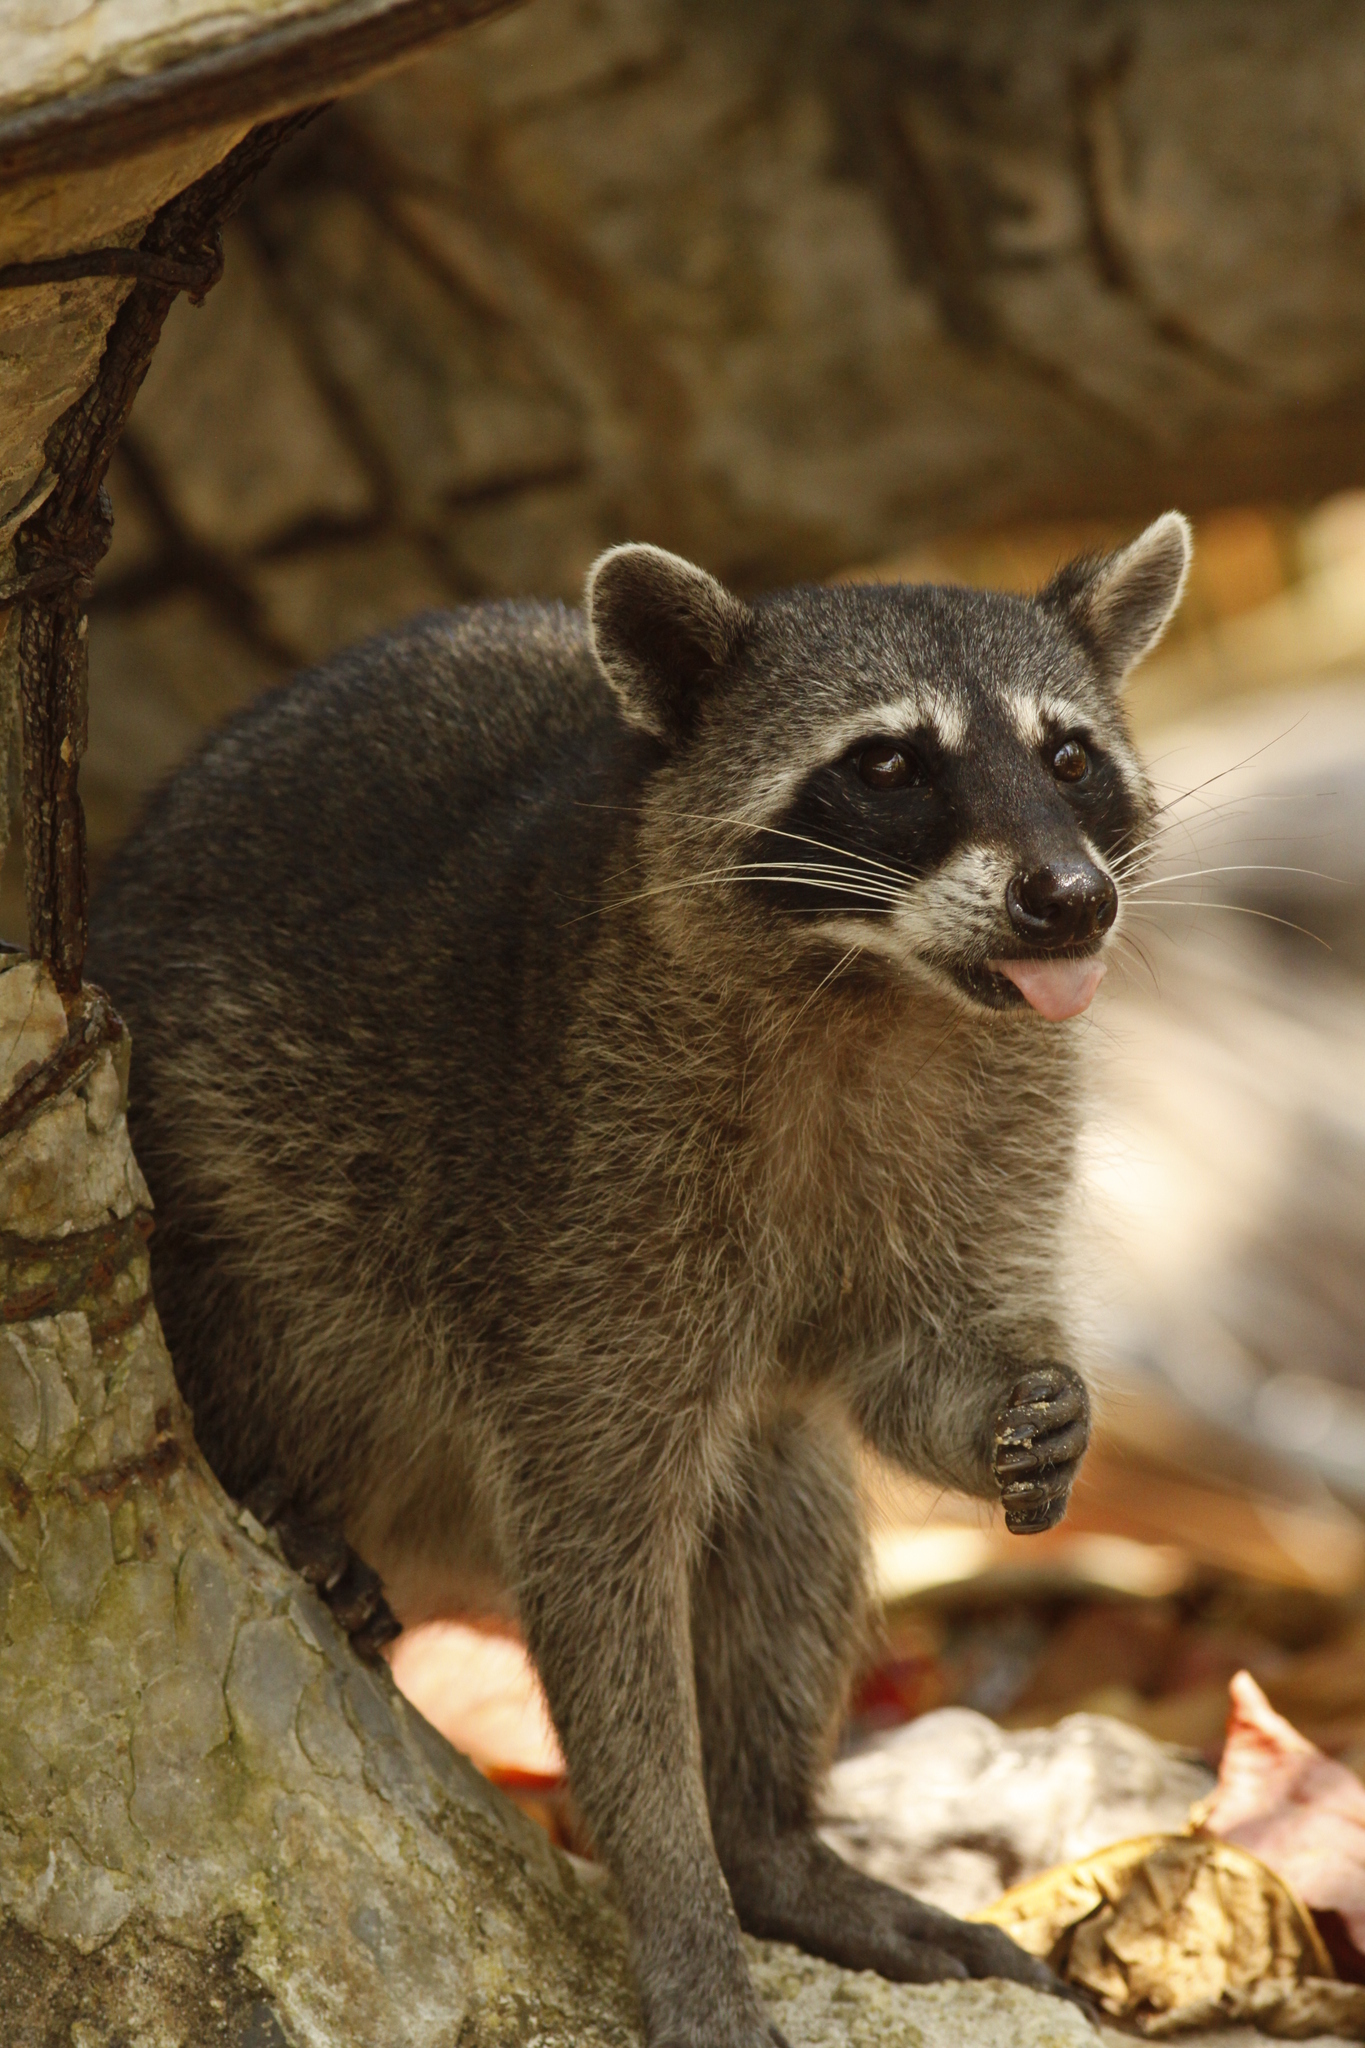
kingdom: Animalia
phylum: Chordata
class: Mammalia
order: Carnivora
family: Procyonidae
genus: Procyon
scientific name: Procyon lotor
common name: Raccoon
